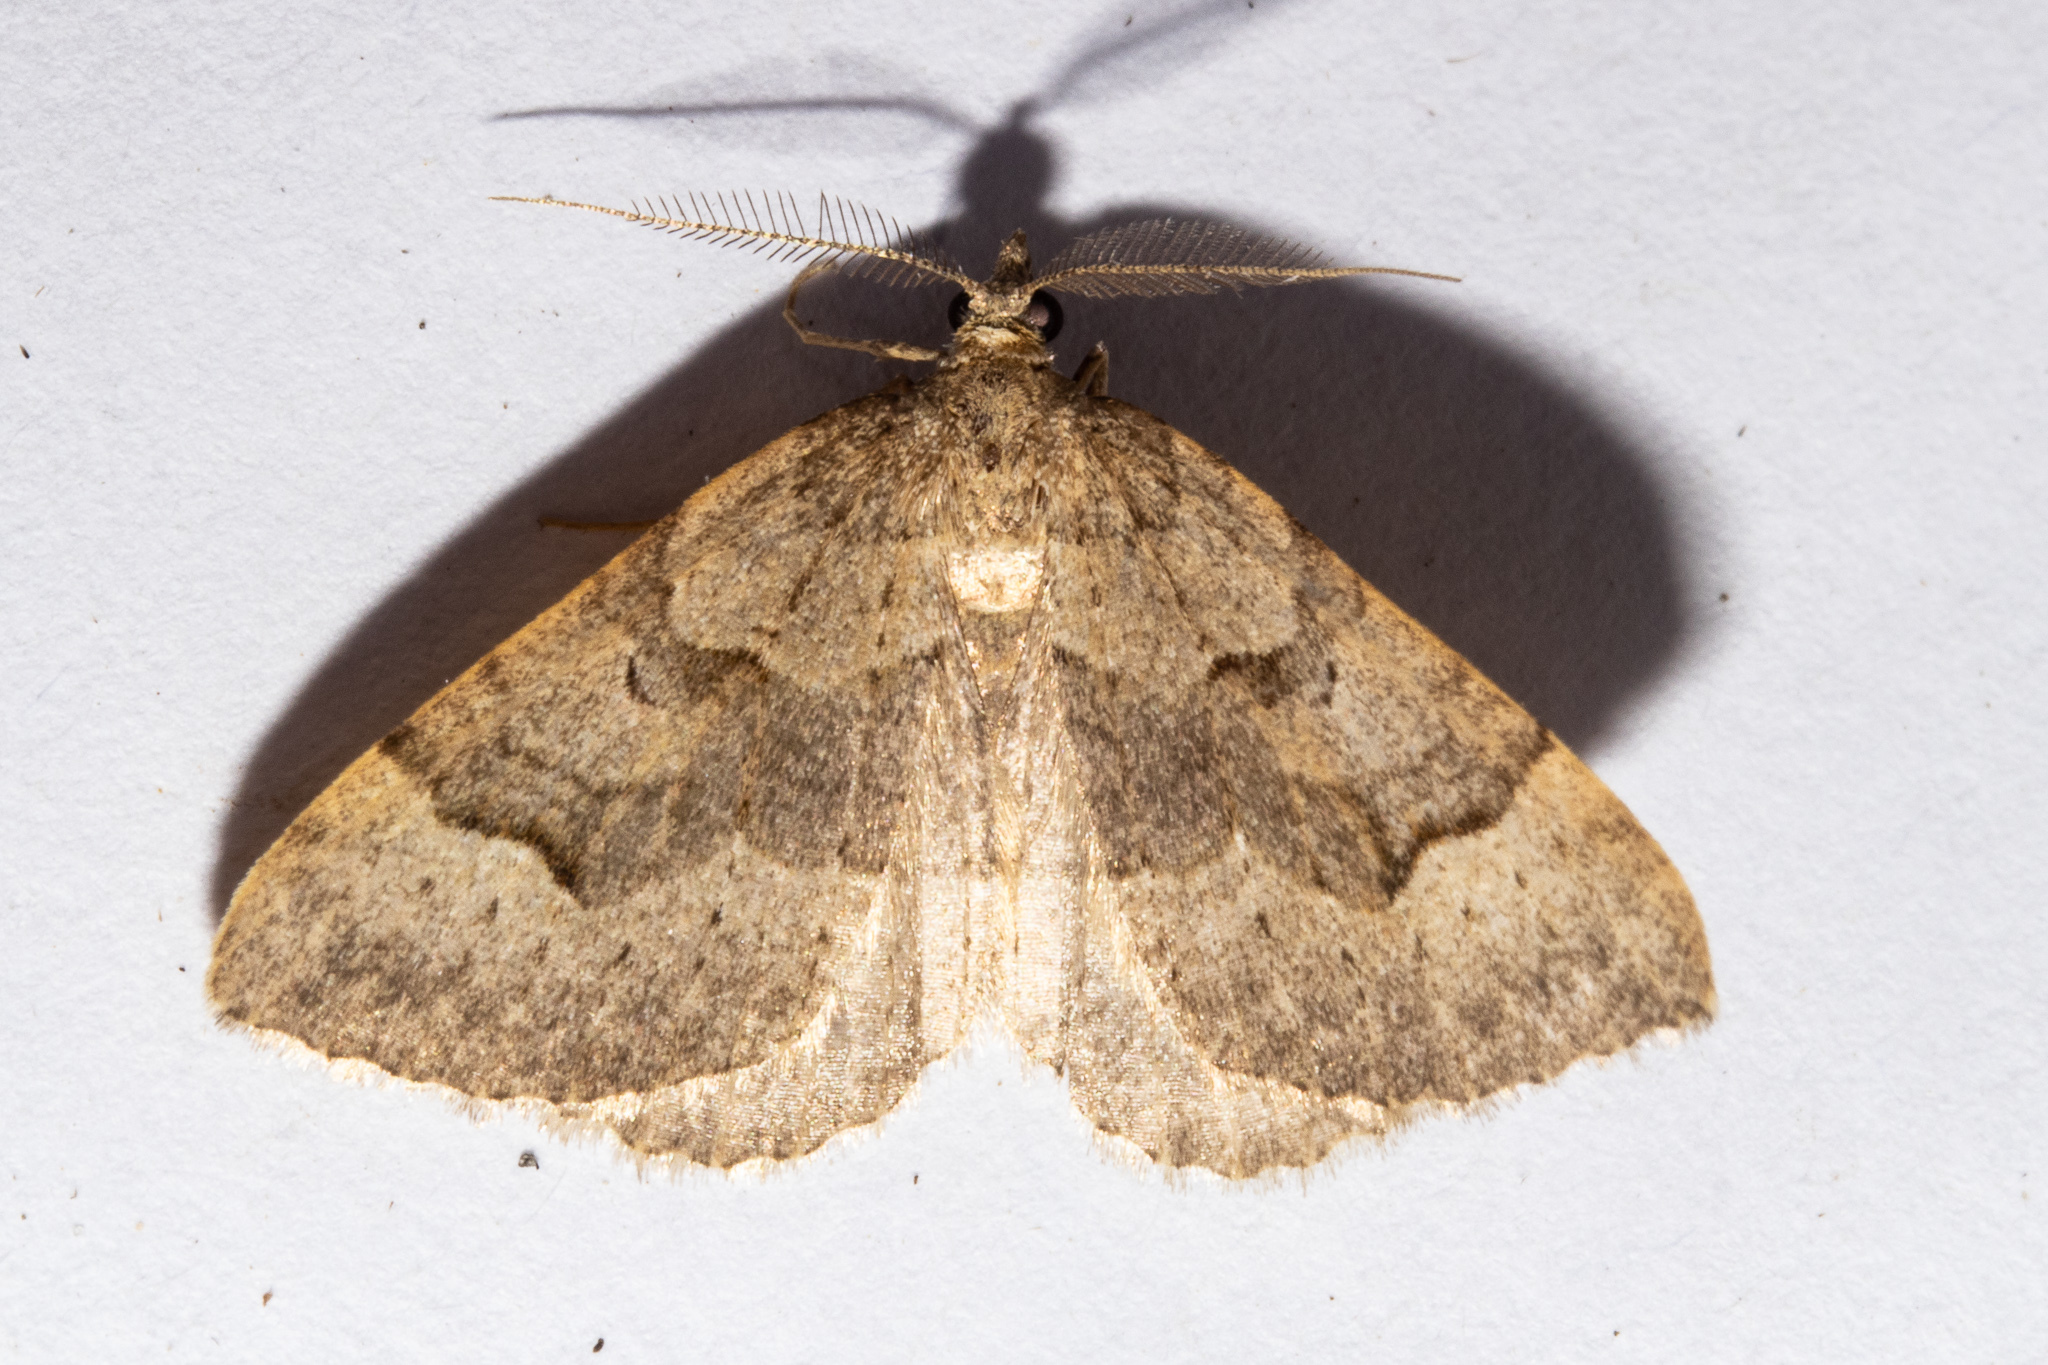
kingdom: Animalia
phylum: Arthropoda
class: Insecta
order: Lepidoptera
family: Geometridae
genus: Epyaxa
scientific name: Epyaxa rosearia
